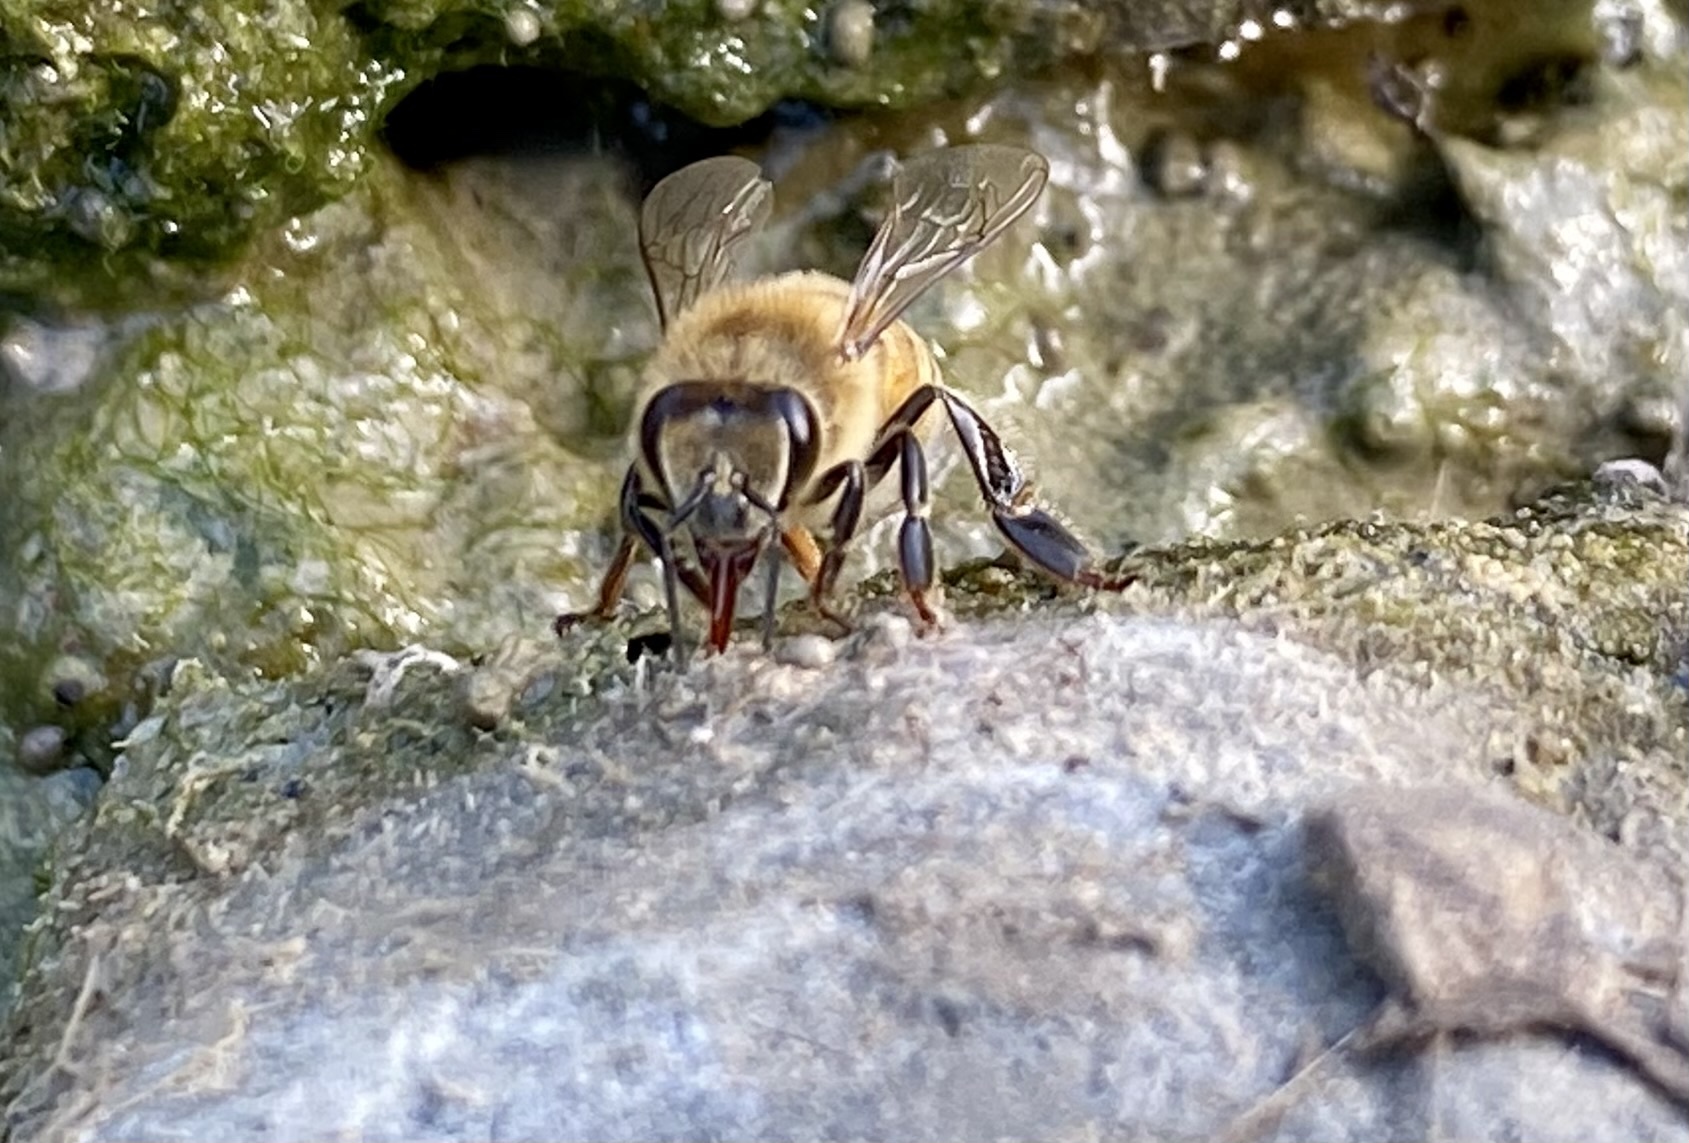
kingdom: Animalia
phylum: Arthropoda
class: Insecta
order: Hymenoptera
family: Apidae
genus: Apis
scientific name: Apis mellifera
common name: Honey bee
